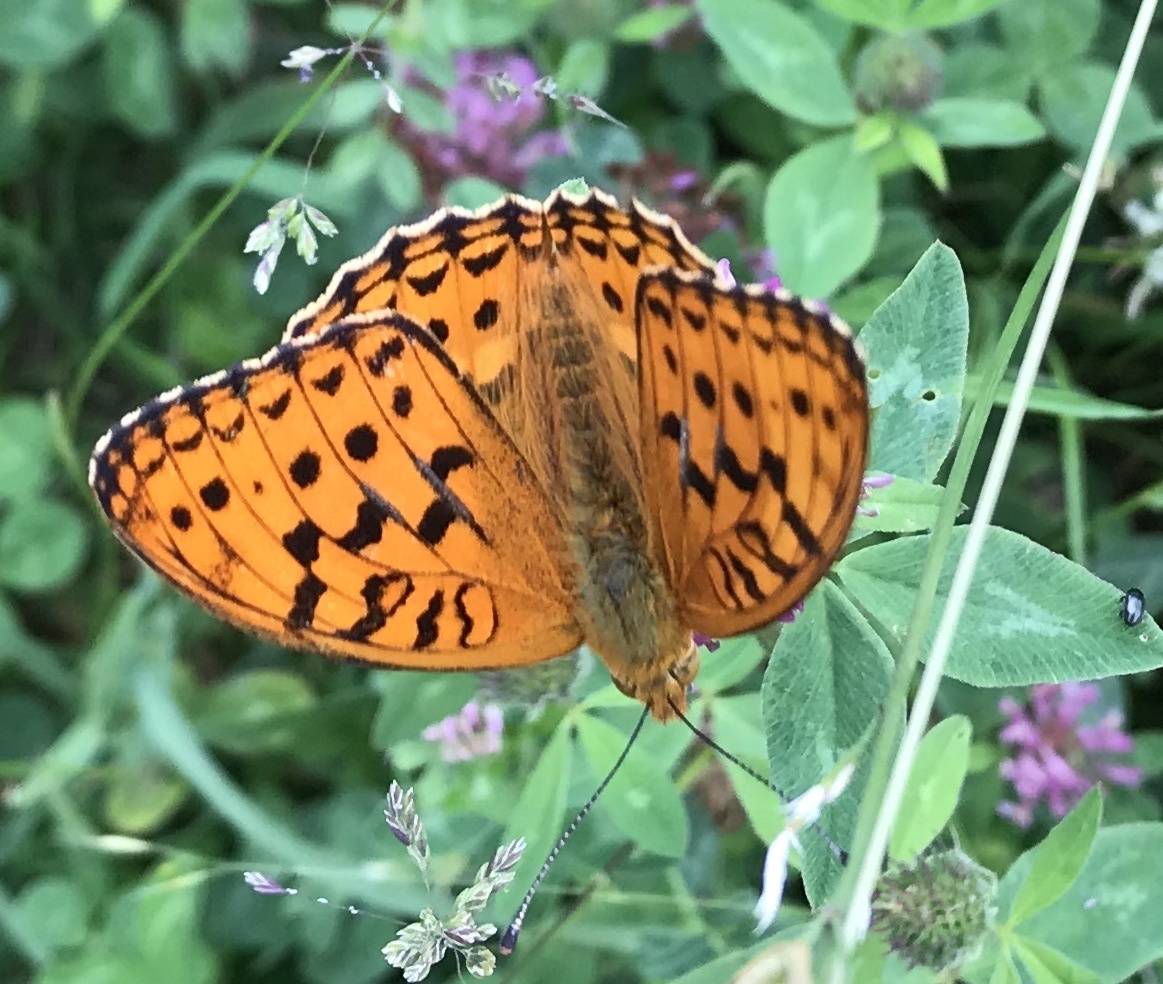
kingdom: Animalia
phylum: Arthropoda
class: Insecta
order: Lepidoptera
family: Nymphalidae
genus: Fabriciana
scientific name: Fabriciana adippe
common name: High brown fritillary
